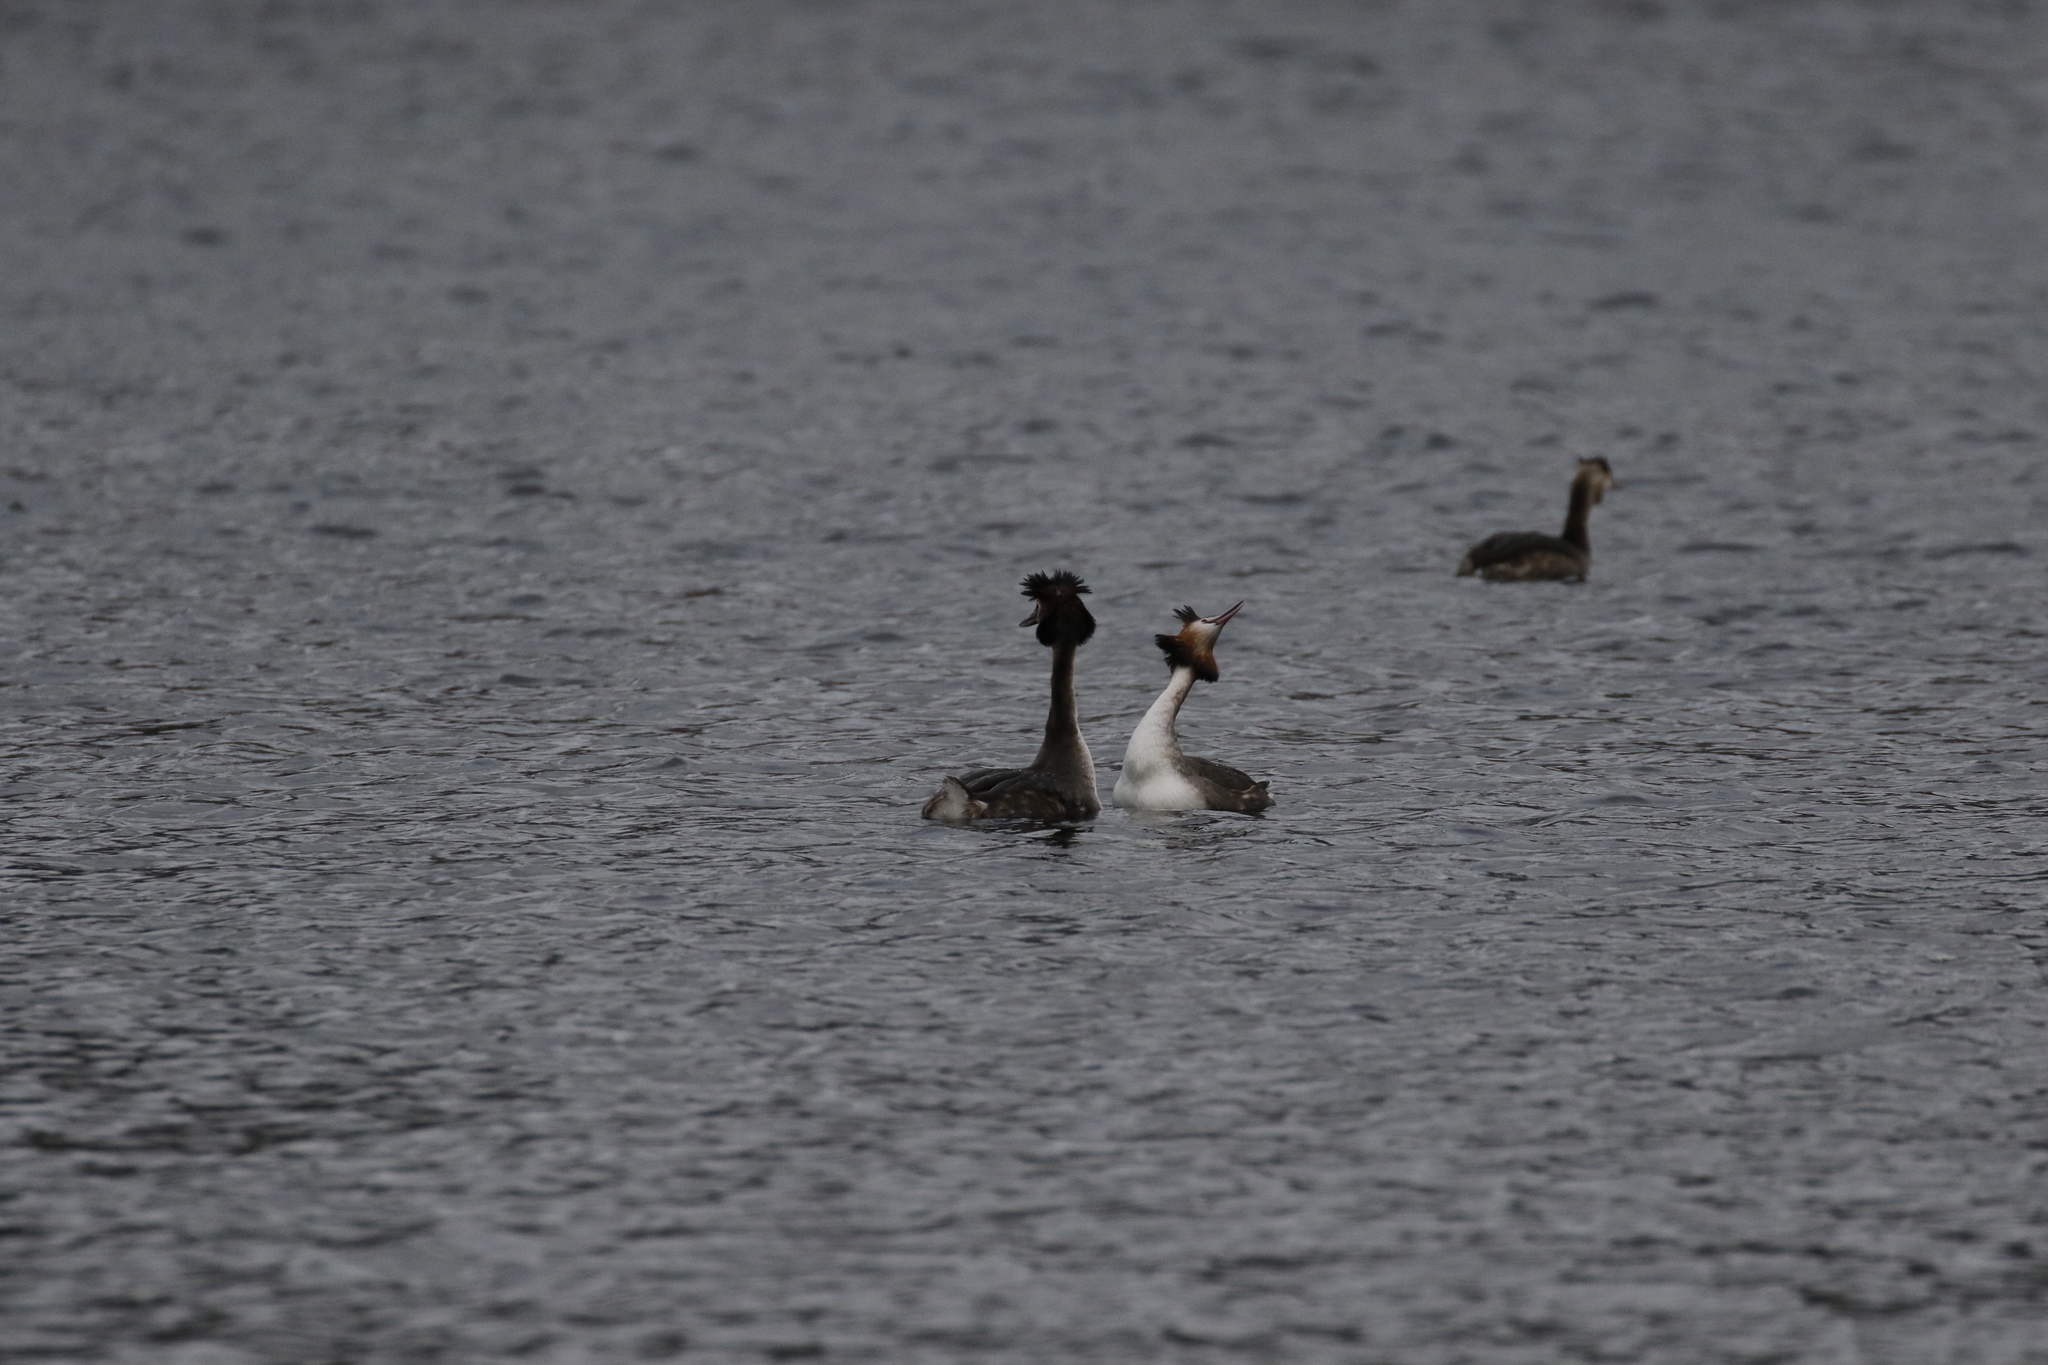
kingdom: Animalia
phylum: Chordata
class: Aves
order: Podicipediformes
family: Podicipedidae
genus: Podiceps
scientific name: Podiceps cristatus
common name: Great crested grebe
